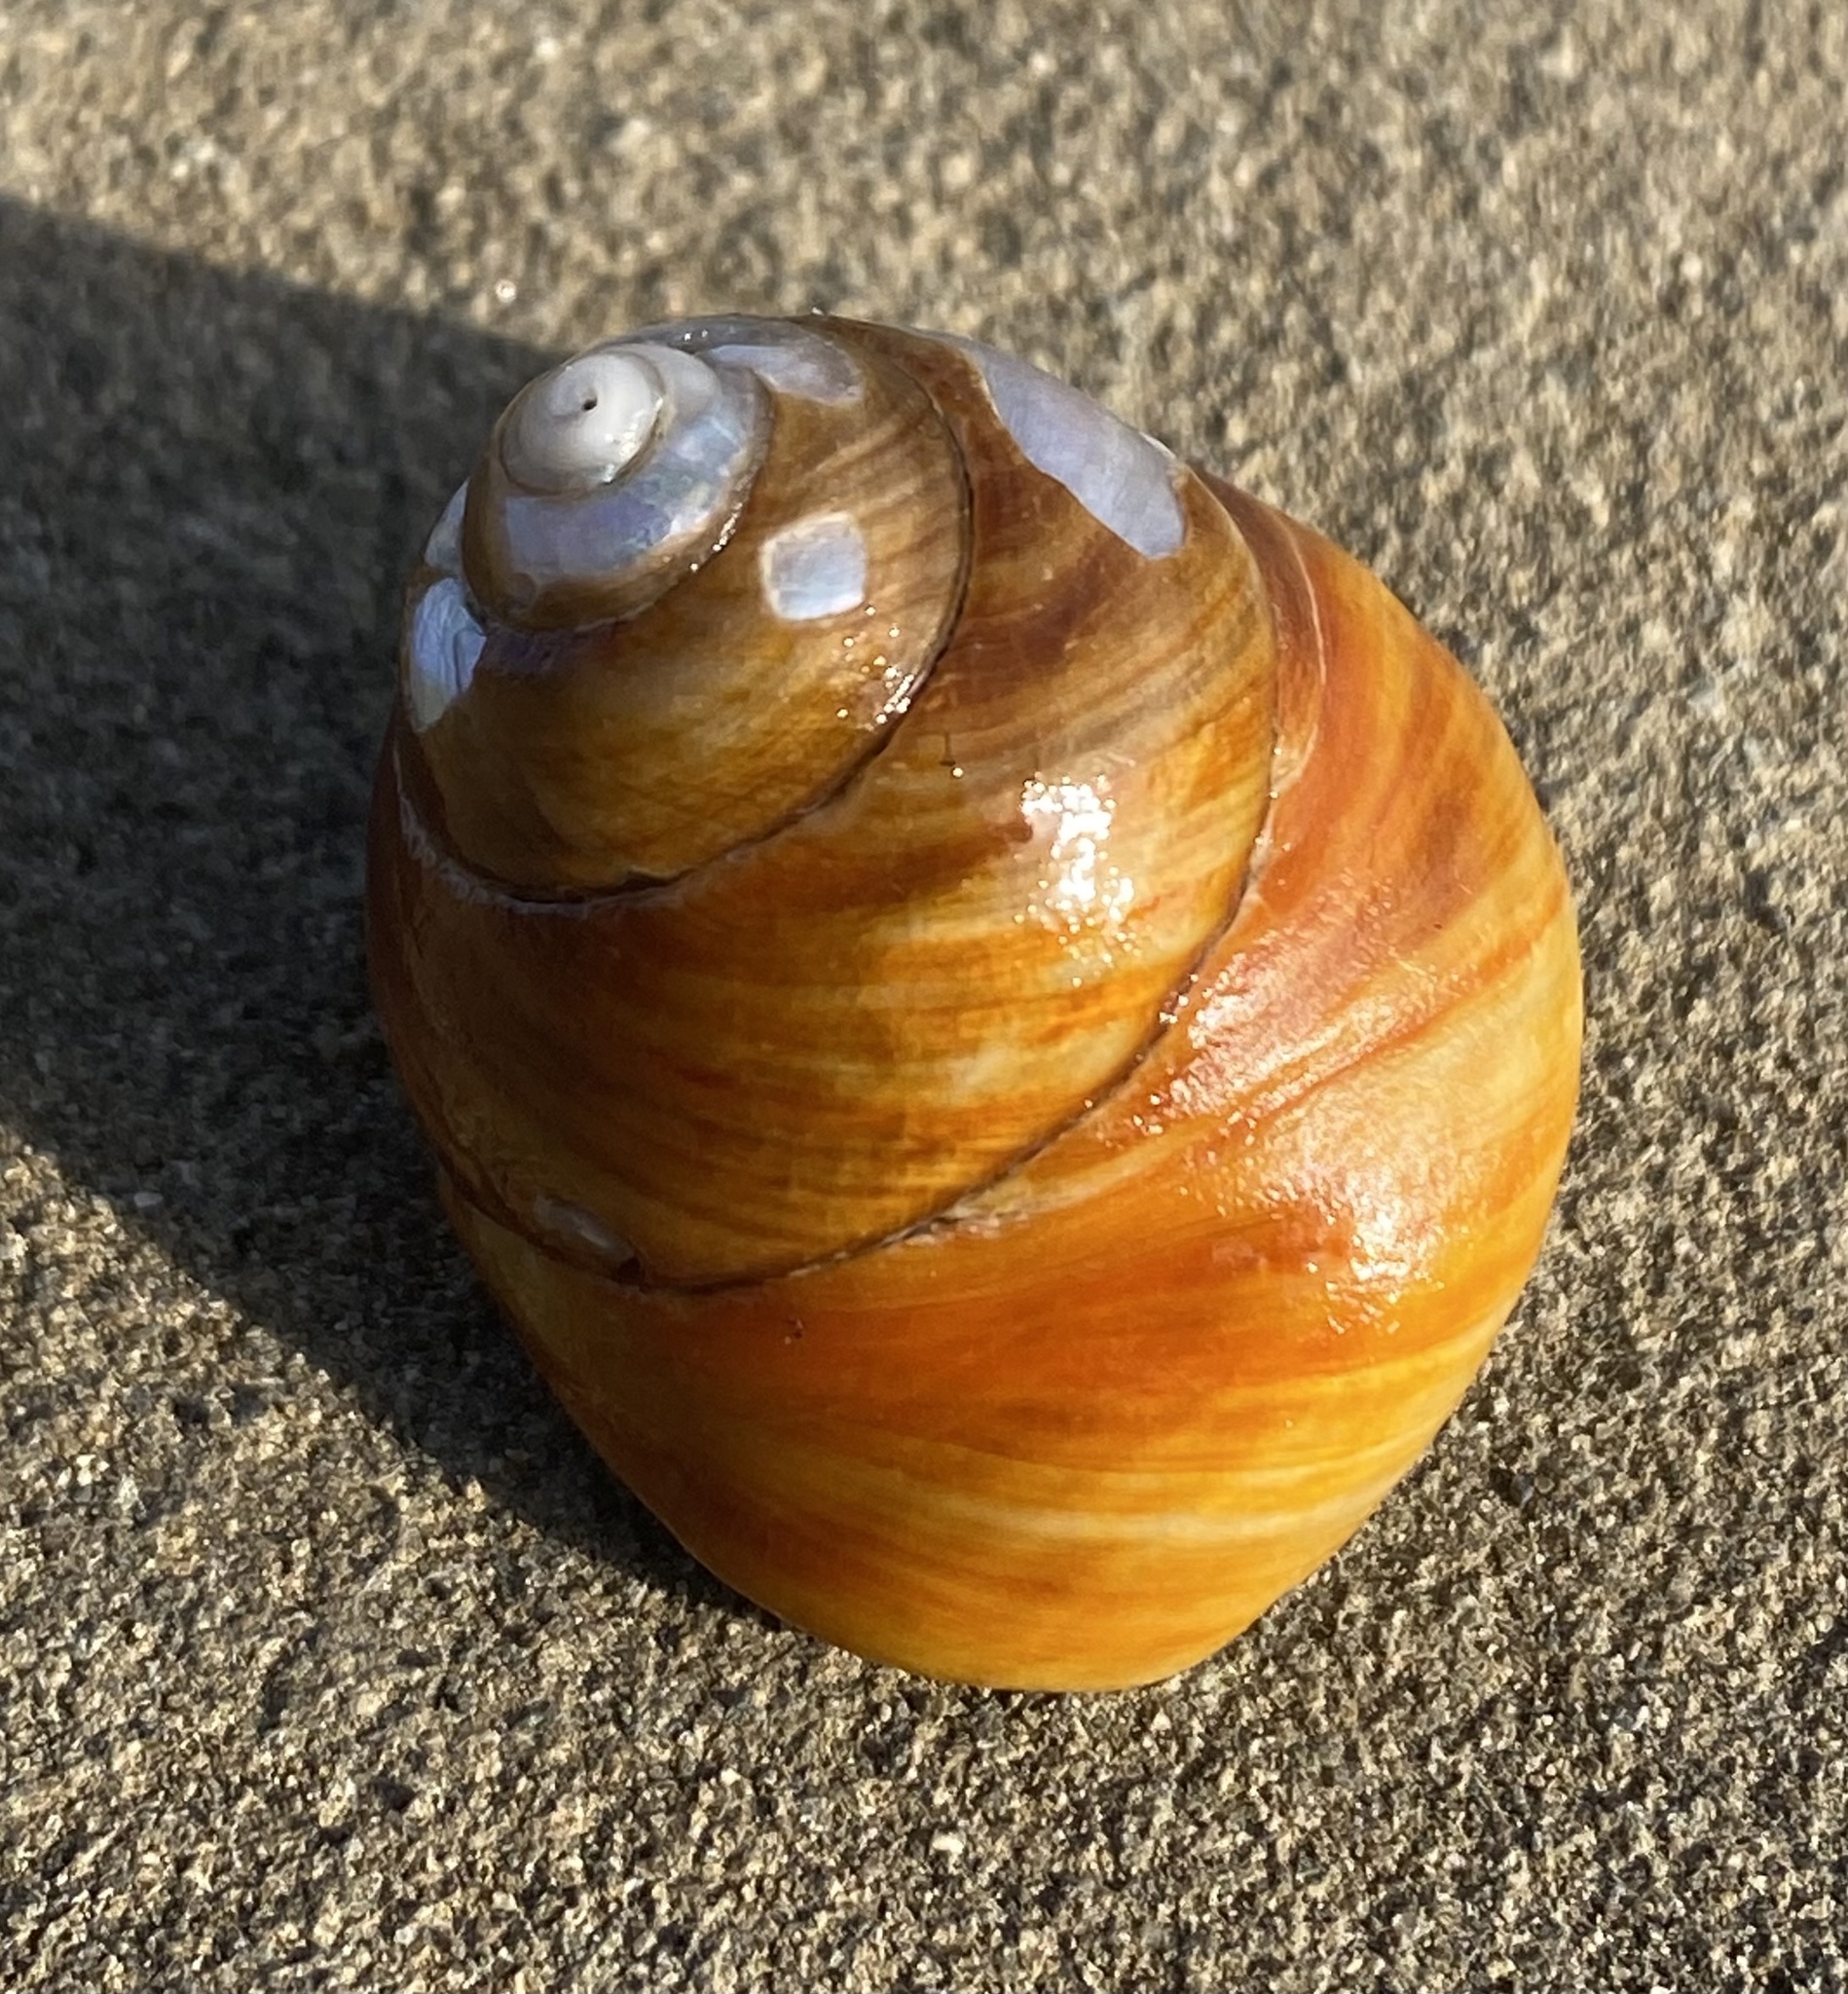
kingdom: Animalia
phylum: Mollusca
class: Gastropoda
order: Trochida
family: Tegulidae
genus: Tegula
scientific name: Tegula brunnea
